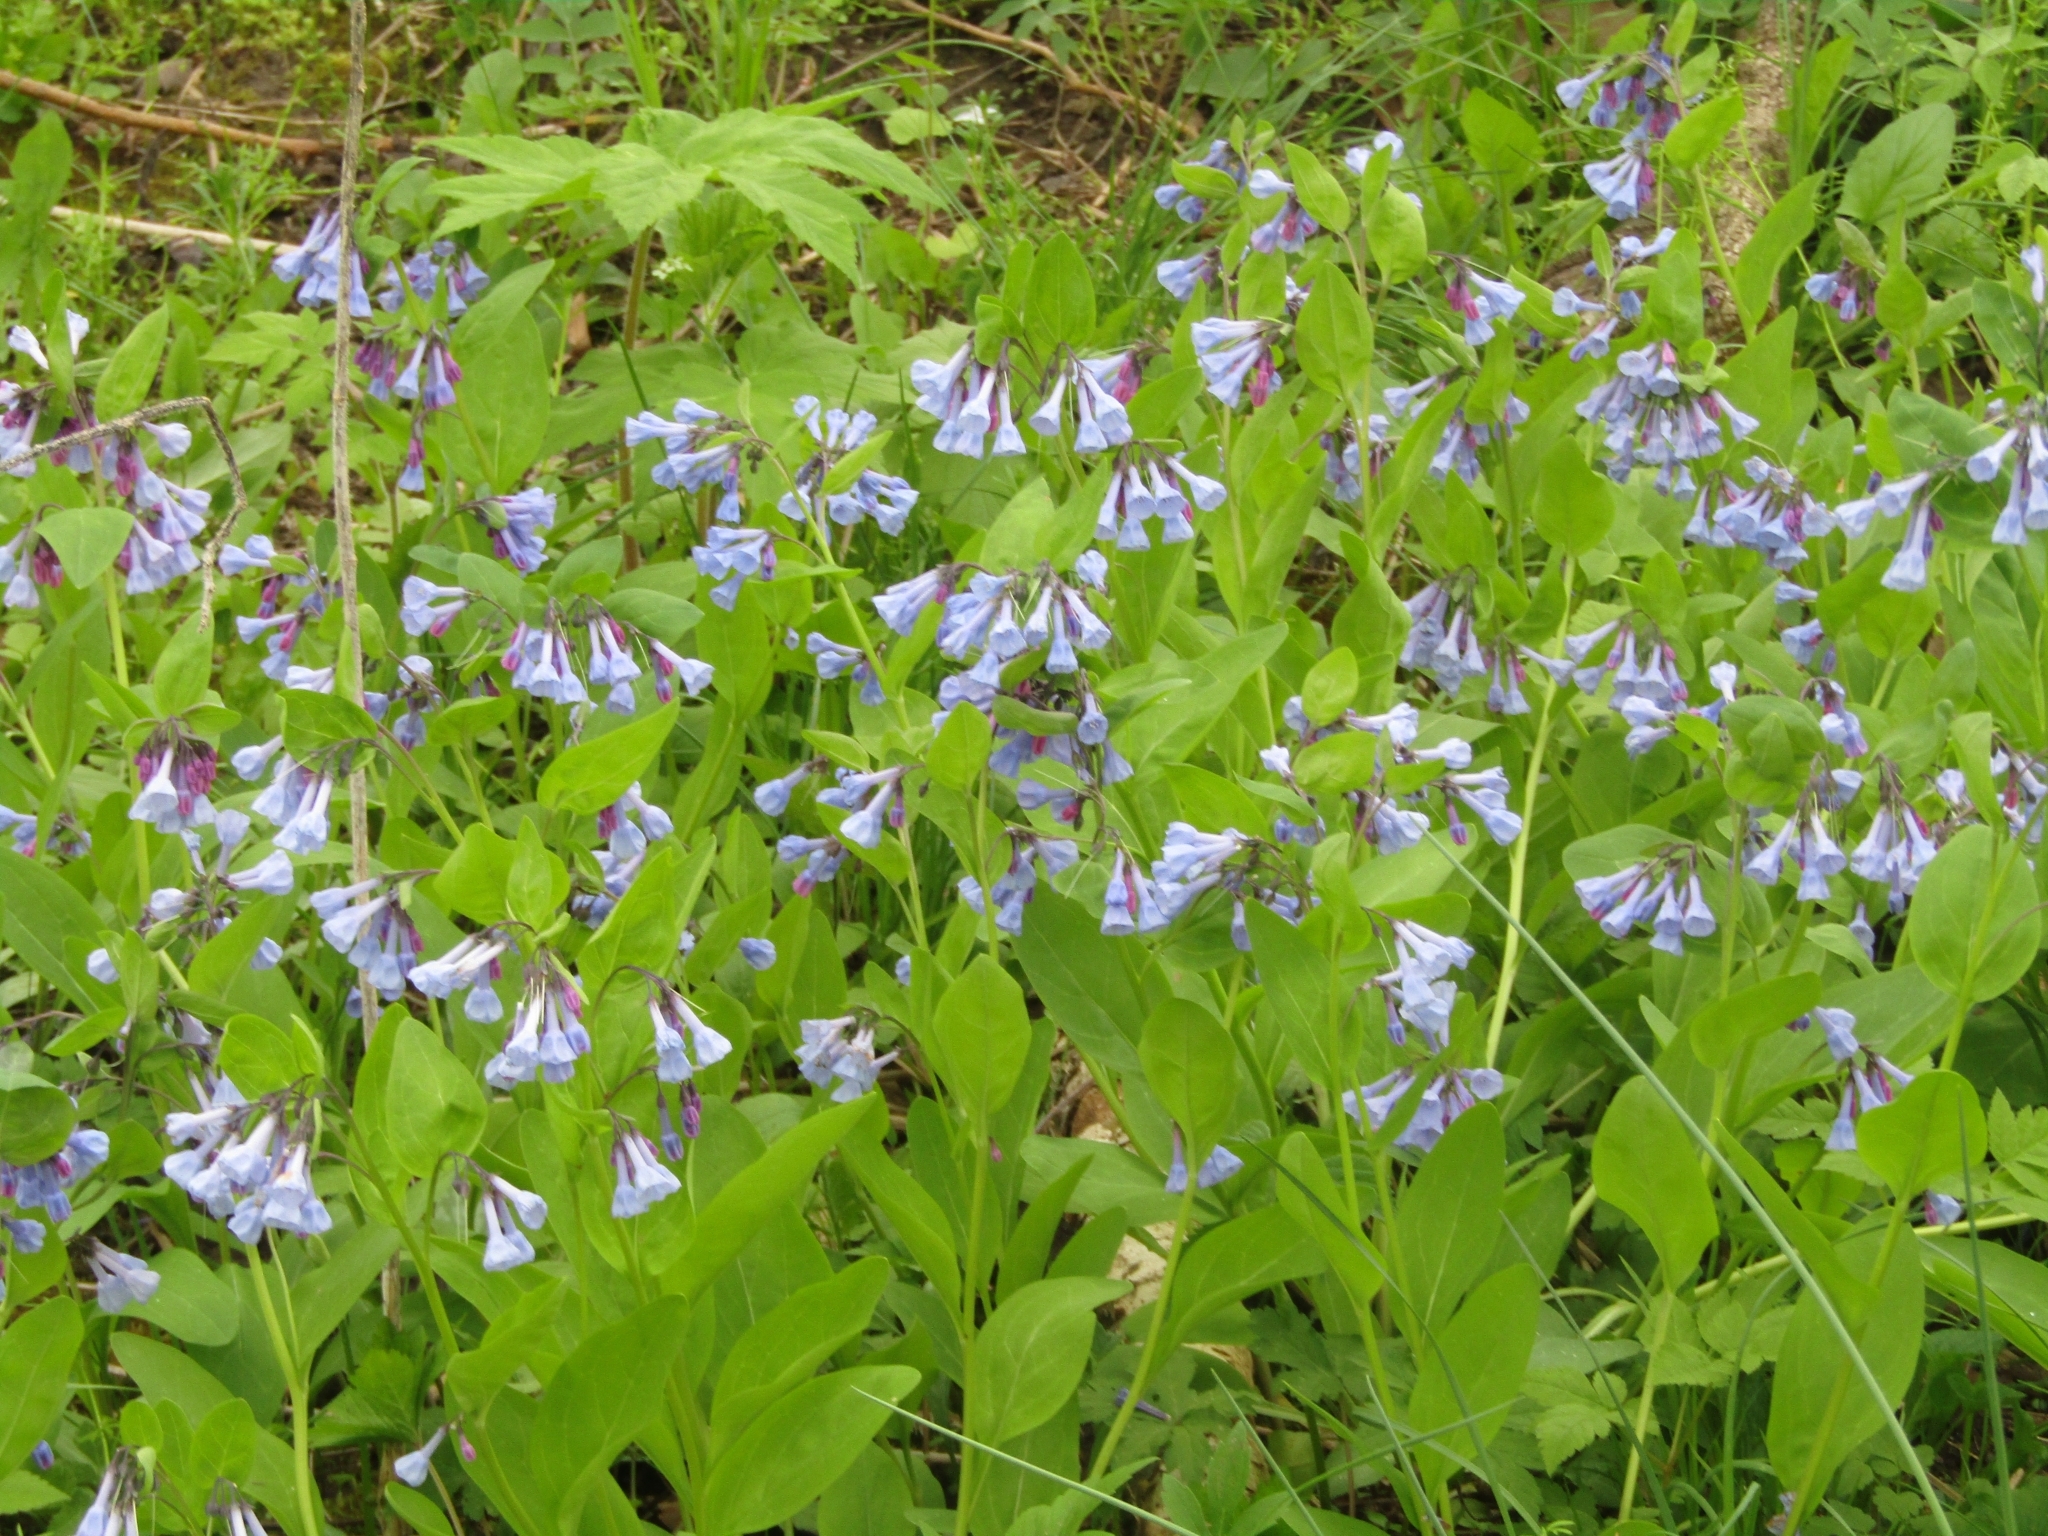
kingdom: Plantae
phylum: Tracheophyta
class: Magnoliopsida
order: Boraginales
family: Boraginaceae
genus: Mertensia
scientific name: Mertensia virginica
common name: Virginia bluebells
